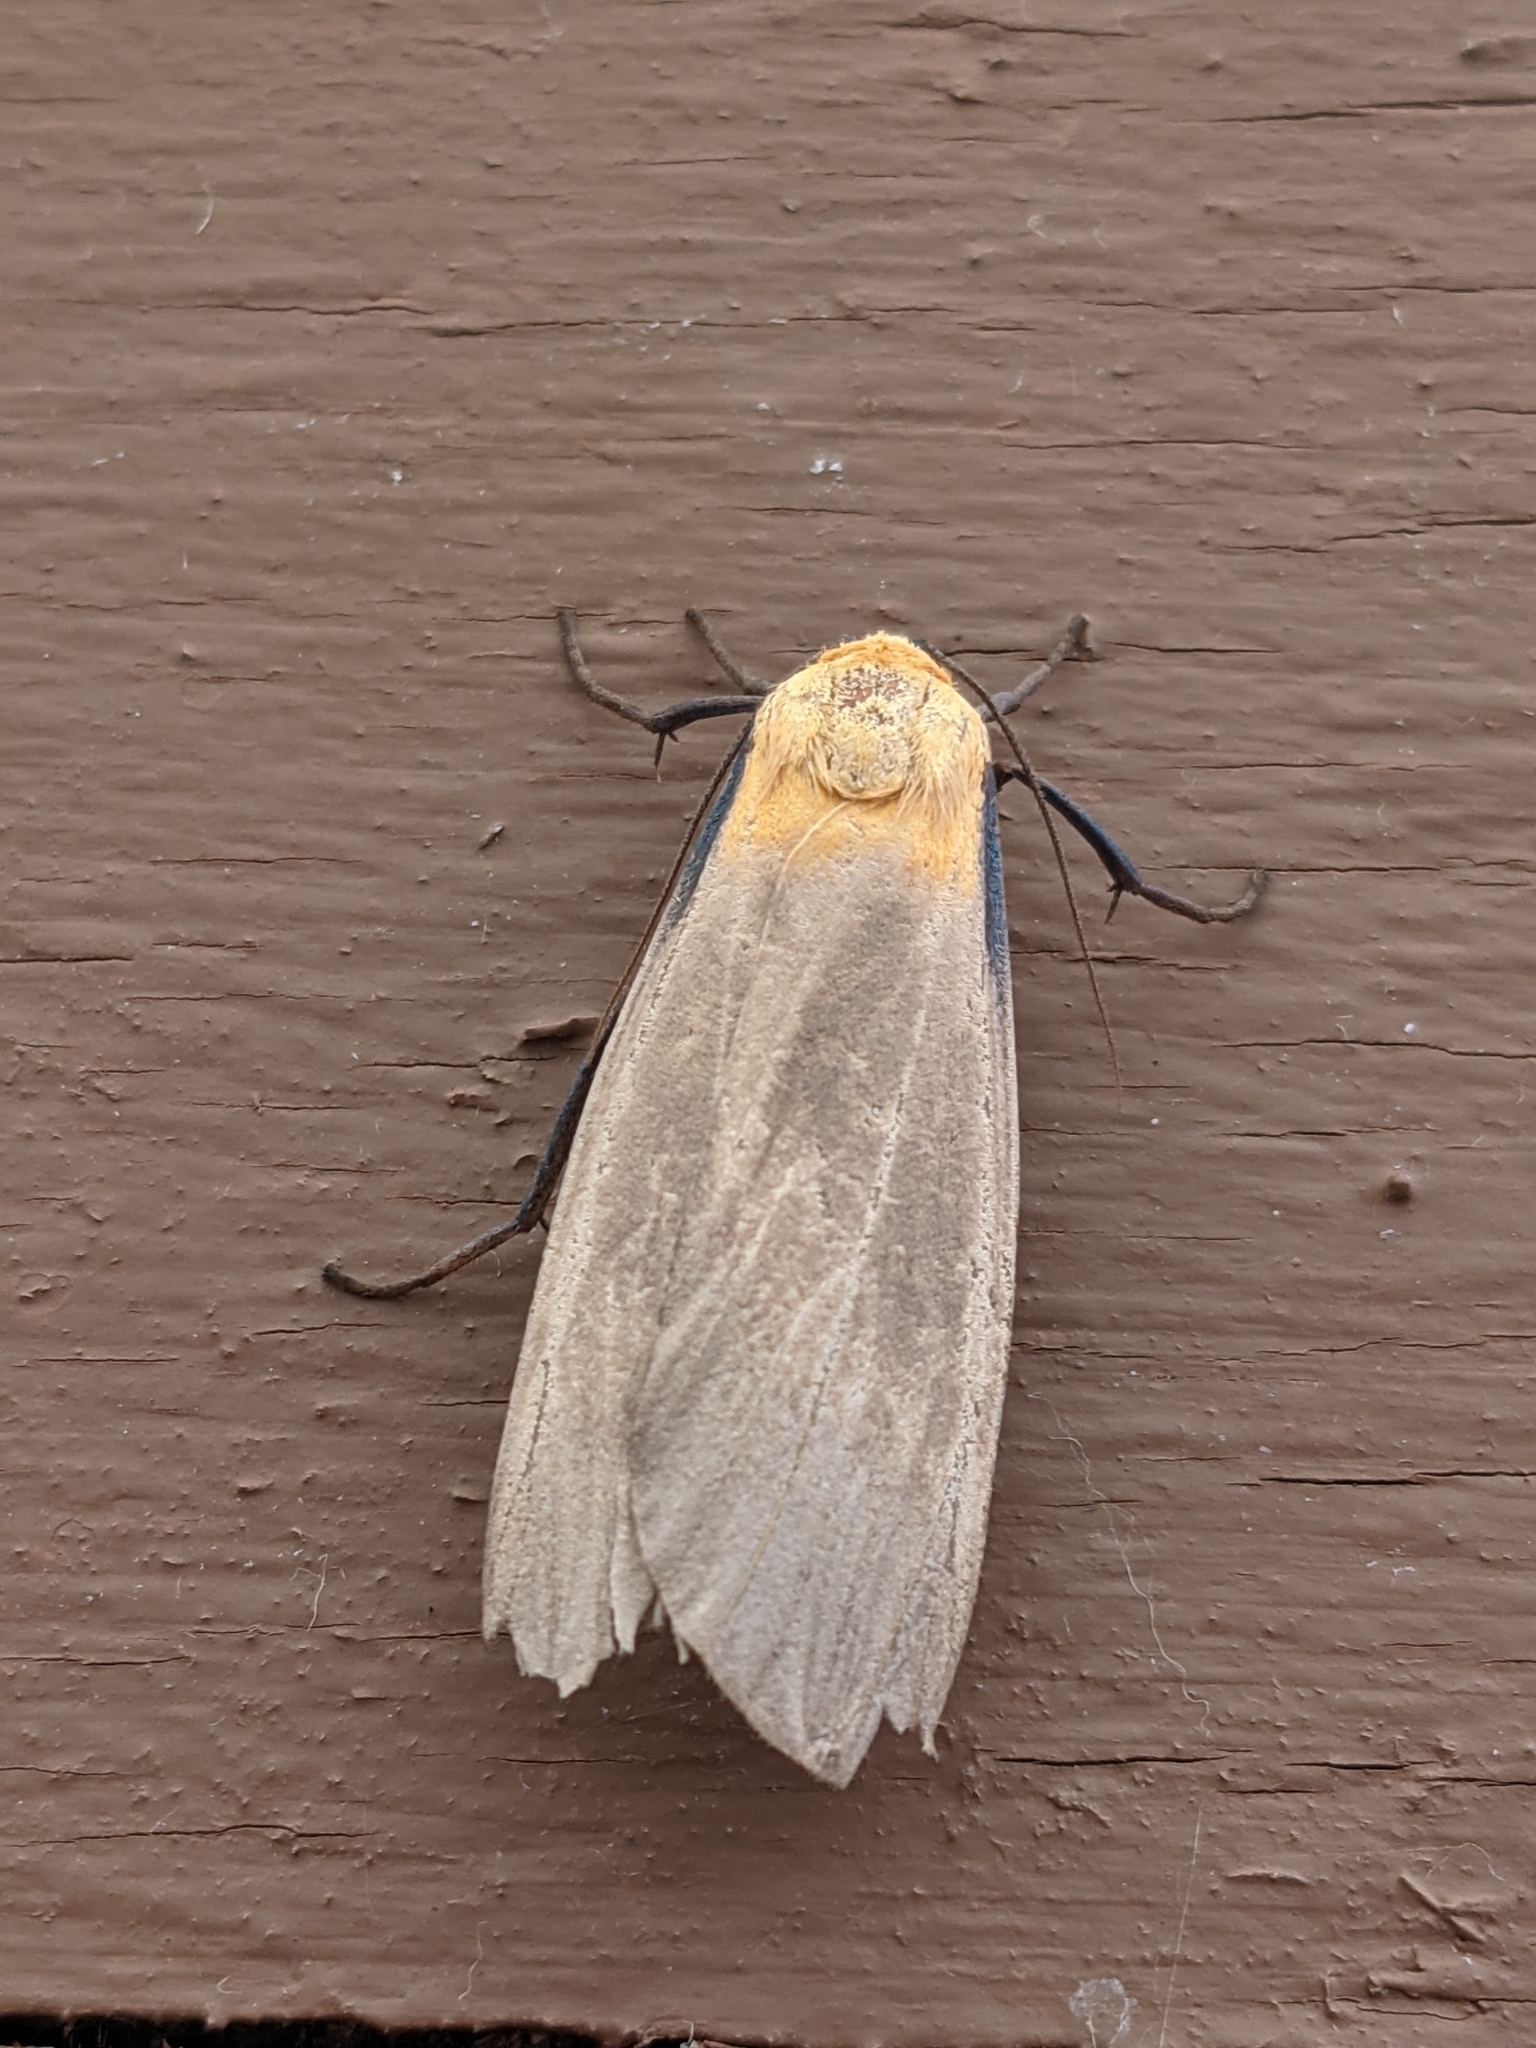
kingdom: Animalia
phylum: Arthropoda
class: Insecta
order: Lepidoptera
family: Erebidae
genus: Lithosia
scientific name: Lithosia quadra
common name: Four-spotted footman
